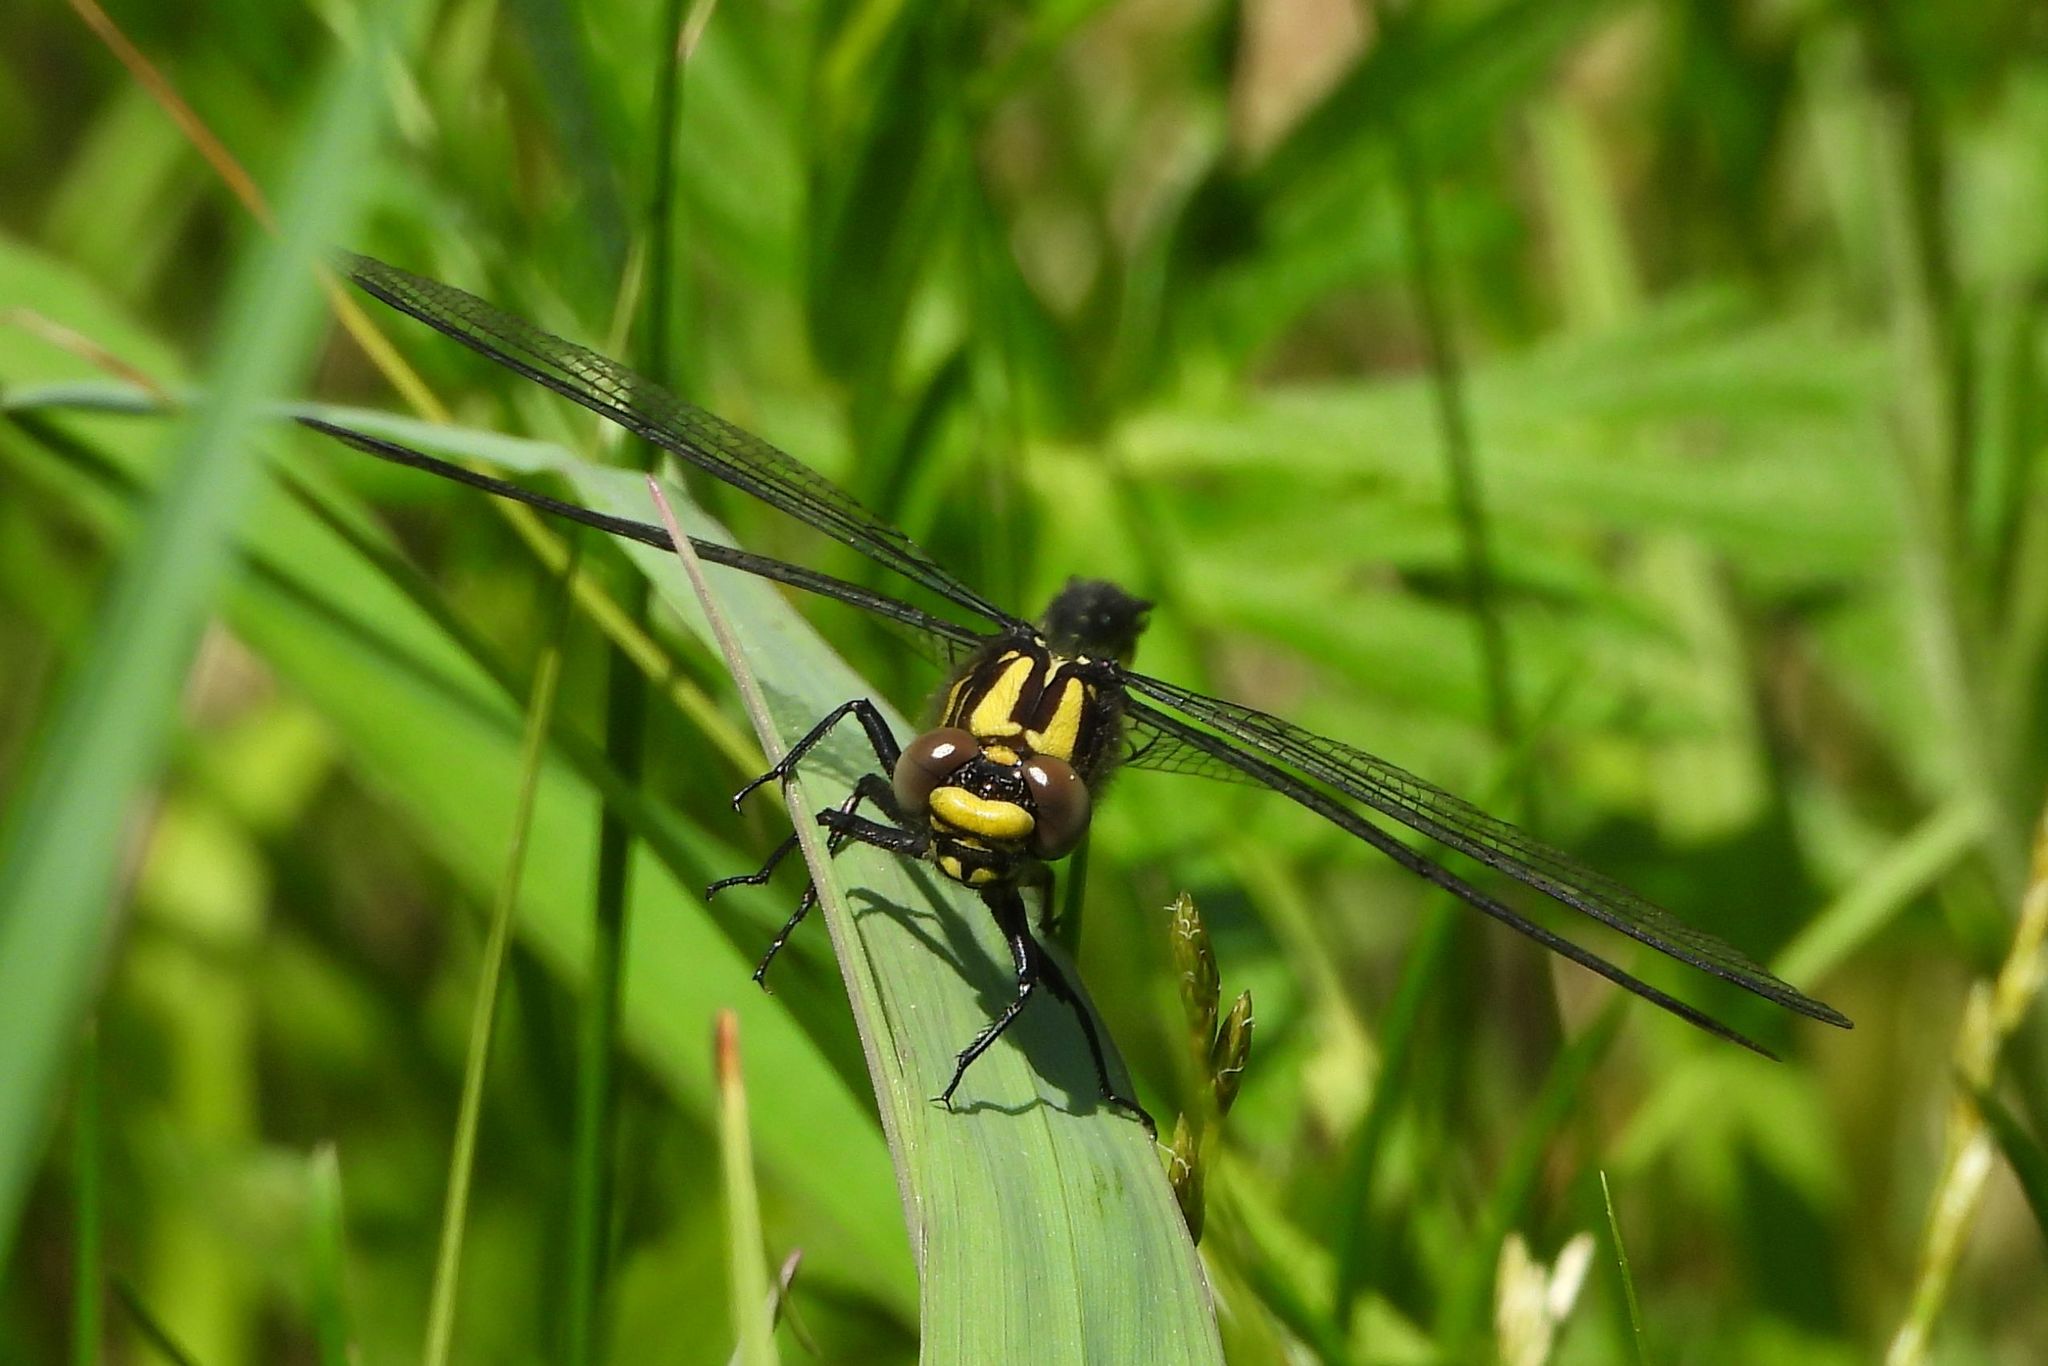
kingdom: Animalia
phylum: Arthropoda
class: Insecta
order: Odonata
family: Gomphidae
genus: Hylogomphus
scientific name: Hylogomphus adelphus
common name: Mustached clubtail
